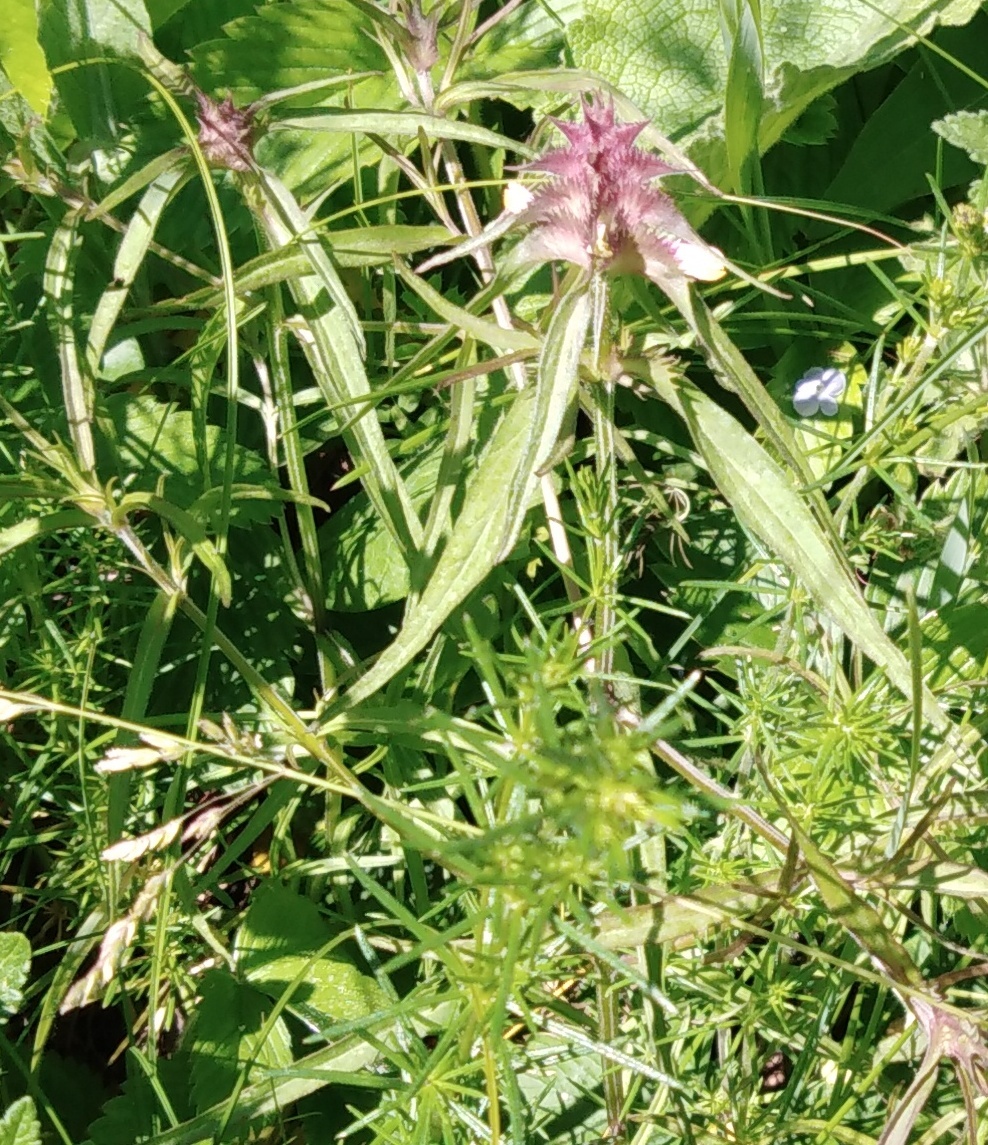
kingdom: Plantae
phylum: Tracheophyta
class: Magnoliopsida
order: Lamiales
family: Orobanchaceae
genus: Melampyrum
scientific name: Melampyrum cristatum
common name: Crested cow-wheat
